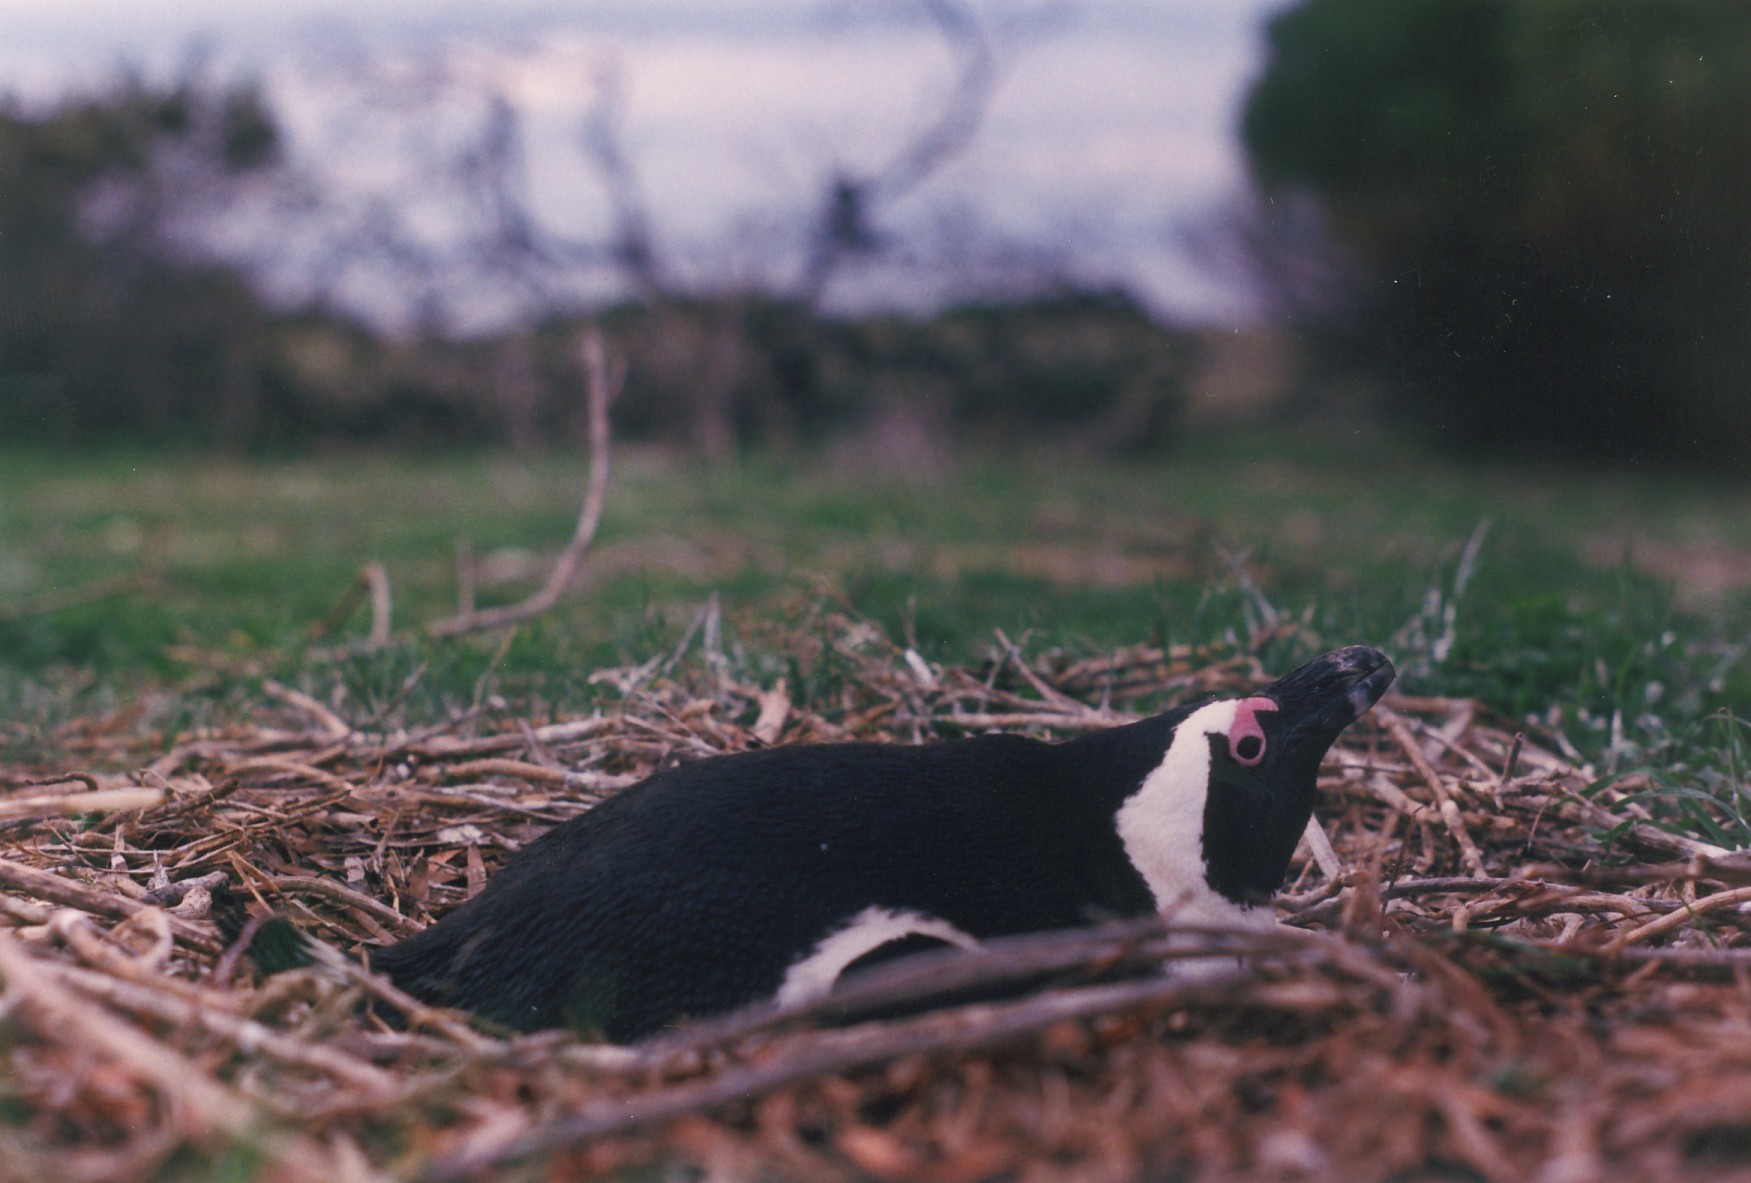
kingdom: Animalia
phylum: Chordata
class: Aves
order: Sphenisciformes
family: Spheniscidae
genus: Spheniscus
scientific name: Spheniscus demersus
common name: African penguin
